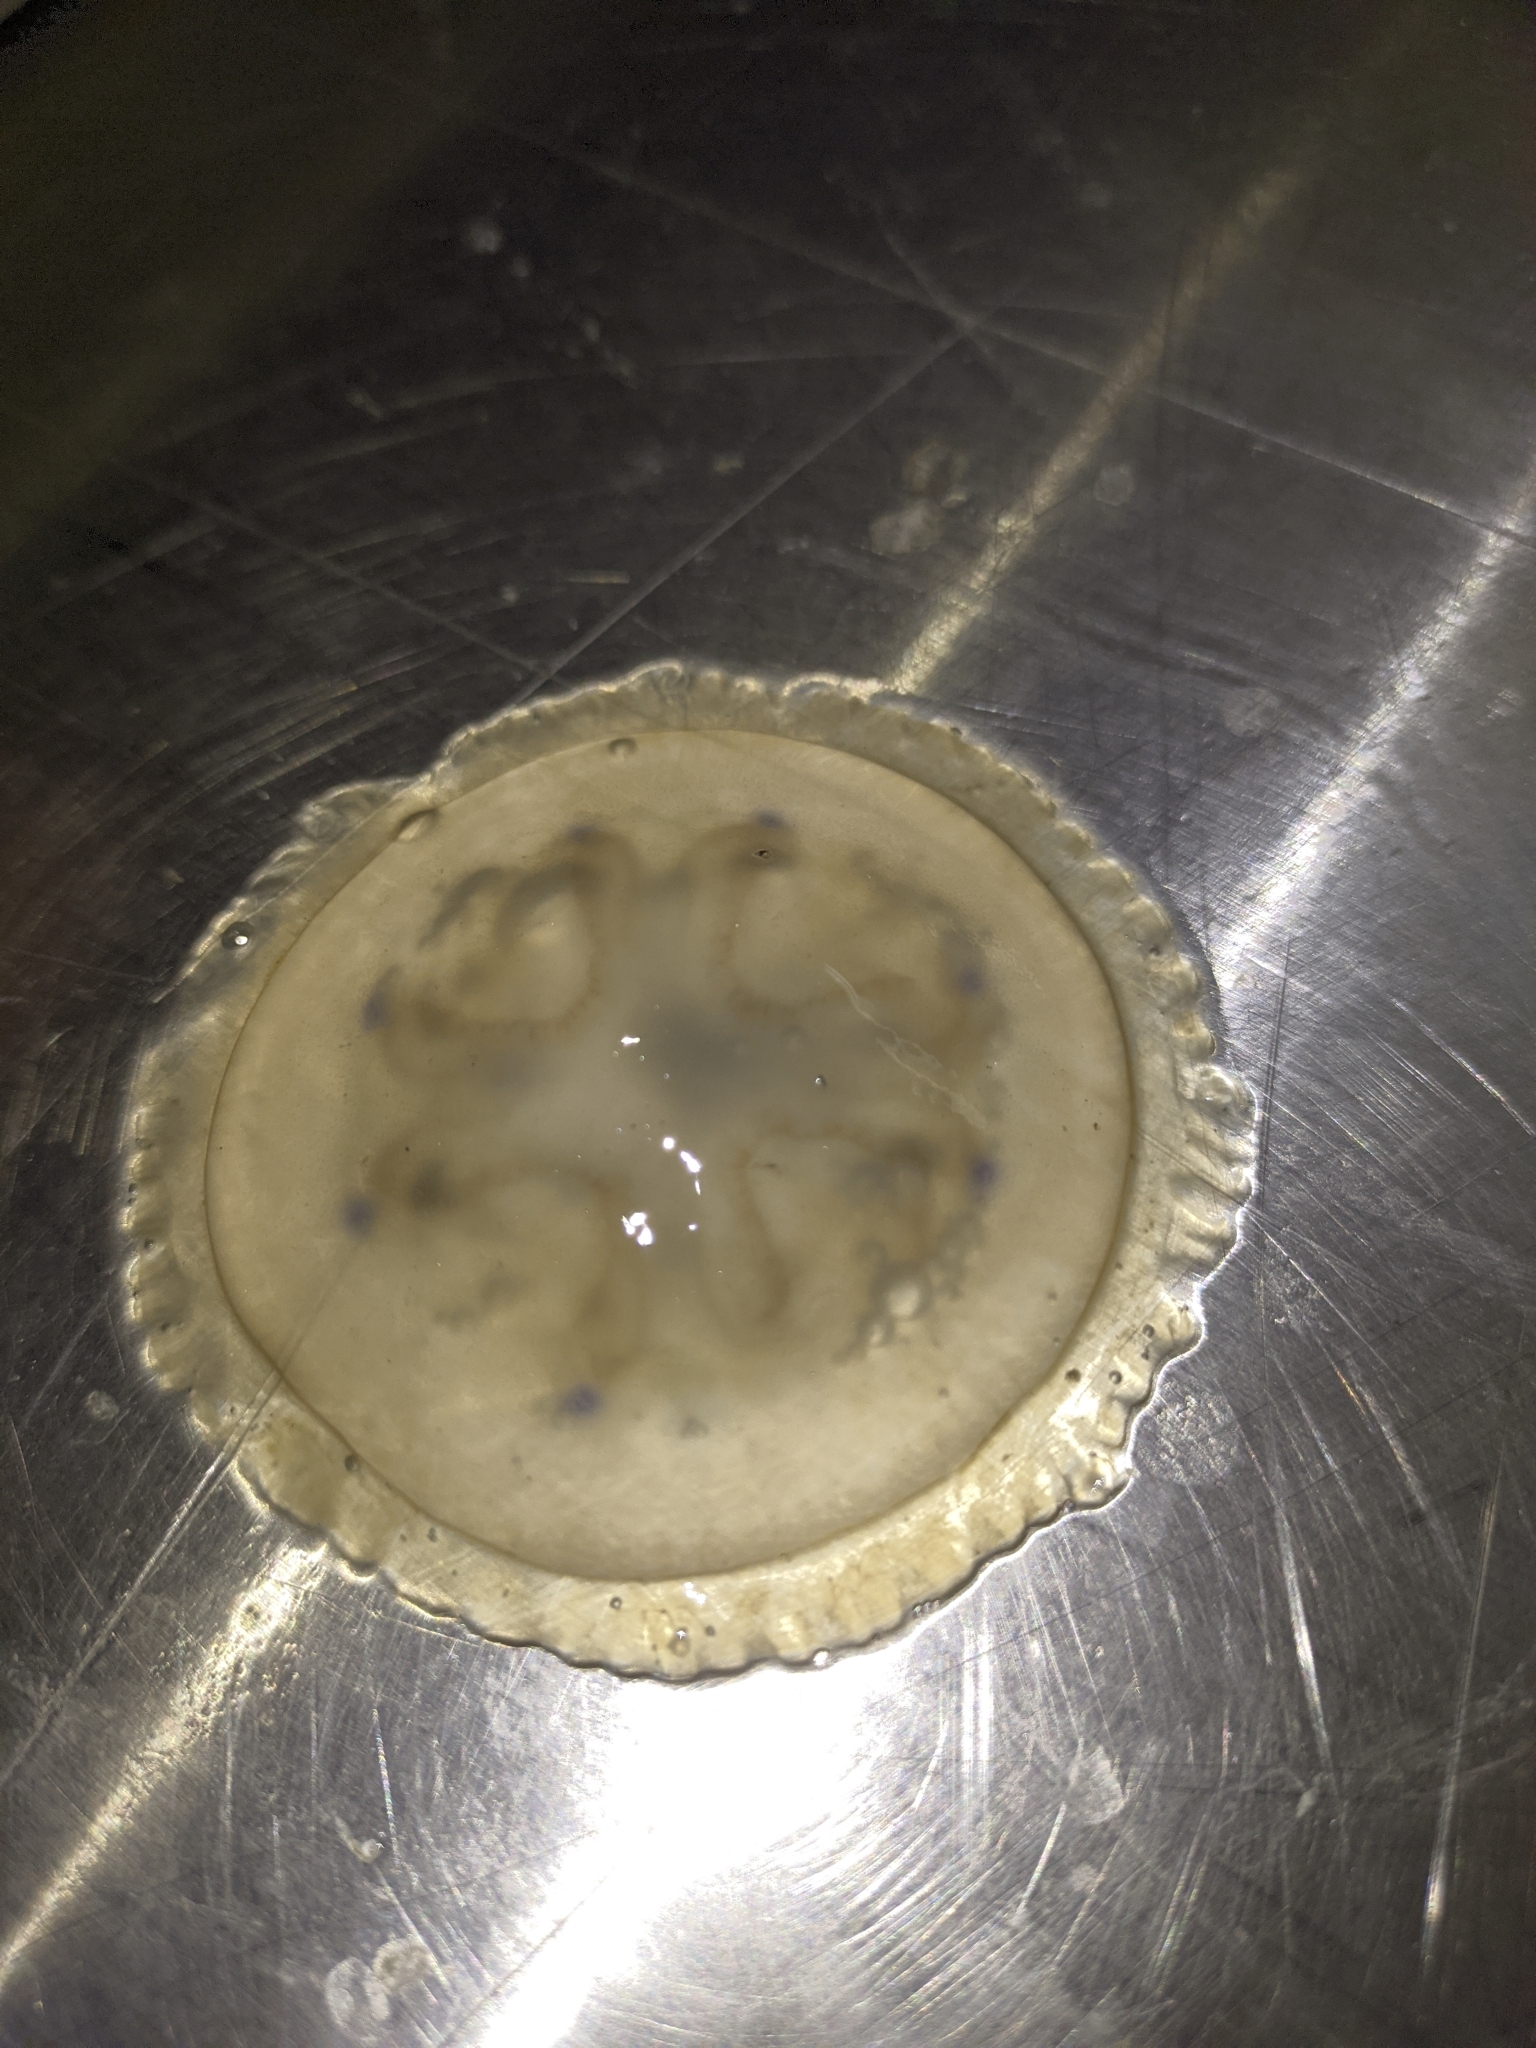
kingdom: Animalia
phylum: Cnidaria
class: Scyphozoa
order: Rhizostomeae
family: Lychnorhizidae
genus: Lychnorhiza
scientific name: Lychnorhiza
